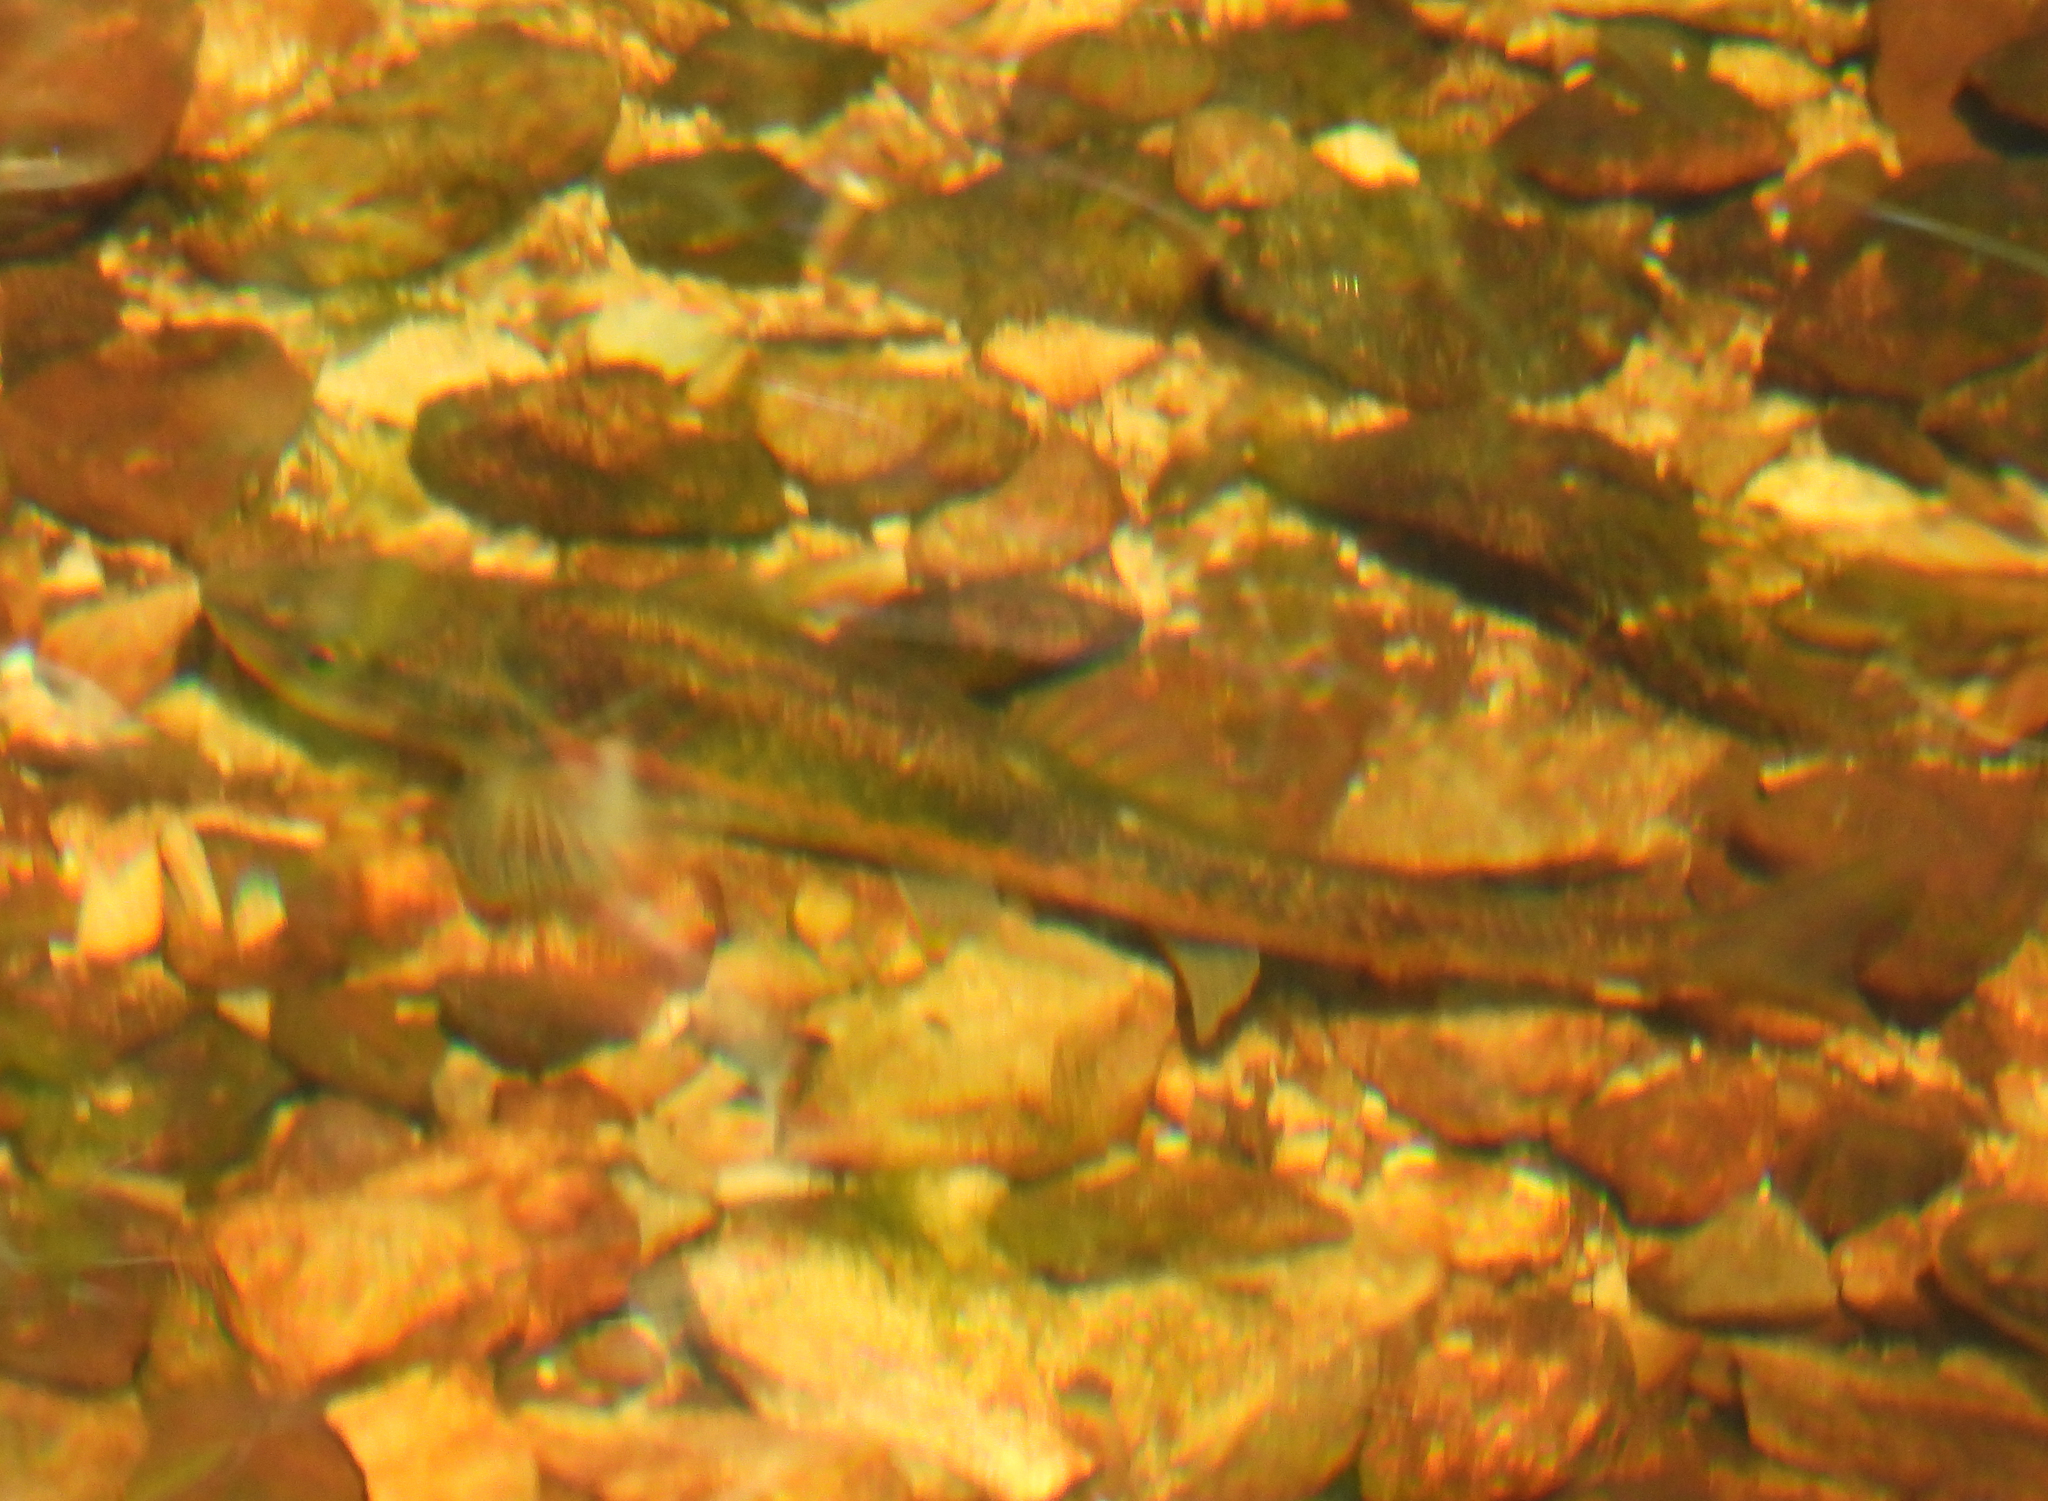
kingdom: Animalia
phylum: Chordata
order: Cypriniformes
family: Cyprinidae
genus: Rhinichthys
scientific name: Rhinichthys obtusus
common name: Western blacknose dace
